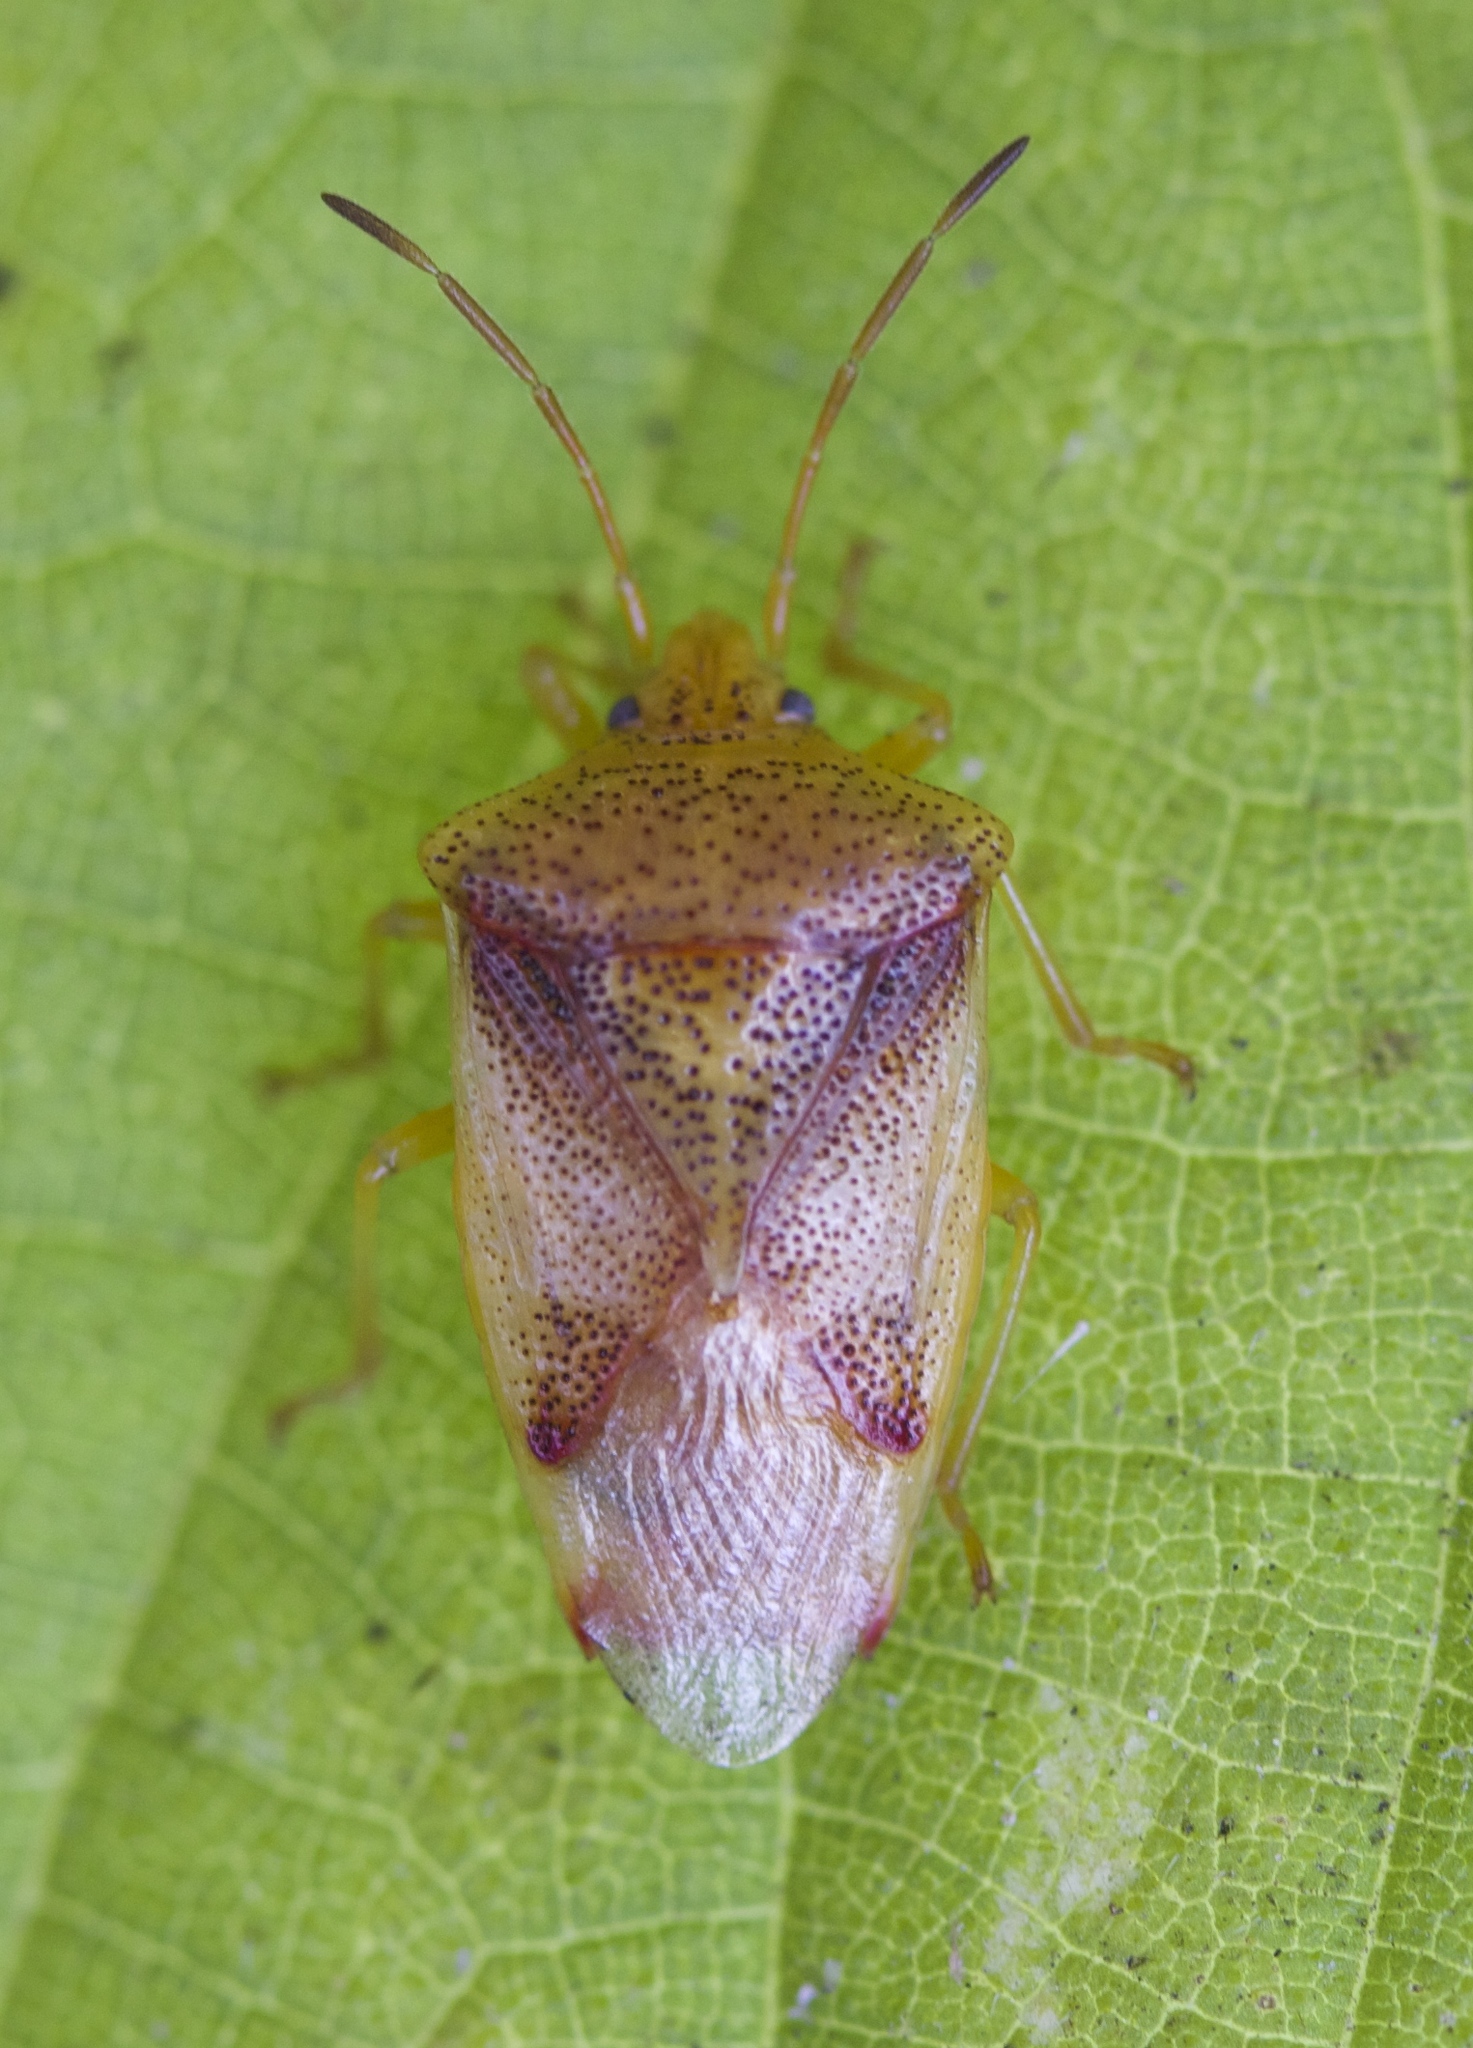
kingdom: Animalia
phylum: Arthropoda
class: Insecta
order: Hemiptera
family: Acanthosomatidae
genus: Elasmostethus
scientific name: Elasmostethus cruciatus
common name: Red-cross shield bug
